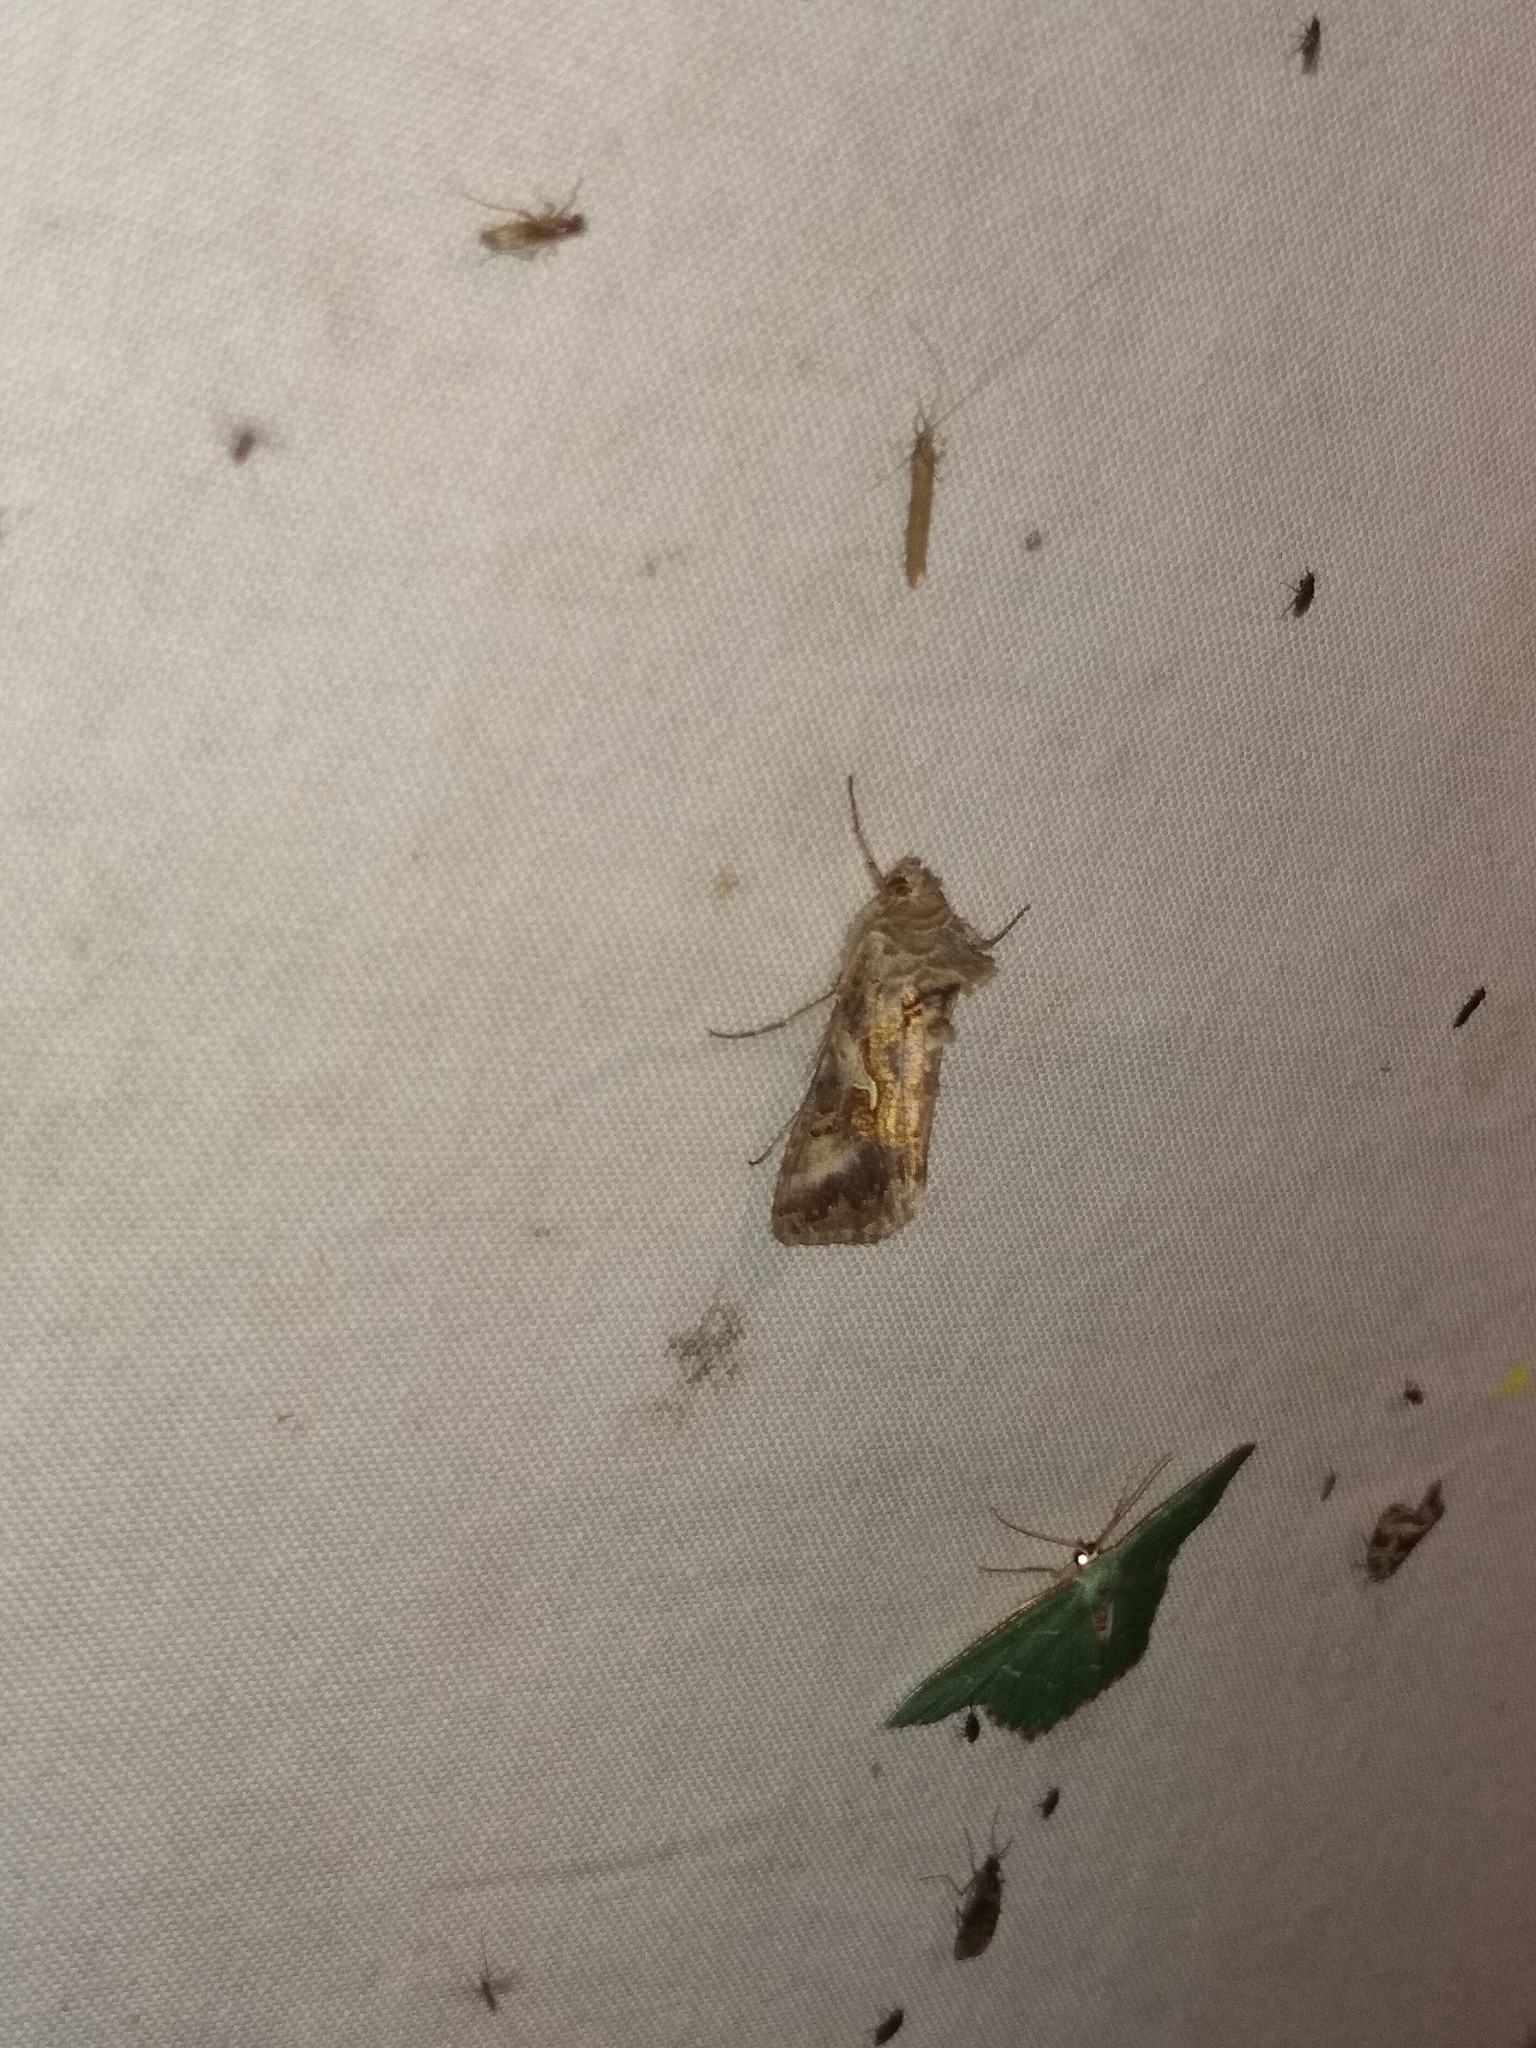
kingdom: Animalia
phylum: Arthropoda
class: Insecta
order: Lepidoptera
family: Noctuidae
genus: Autographa
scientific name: Autographa gamma
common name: Silver y
